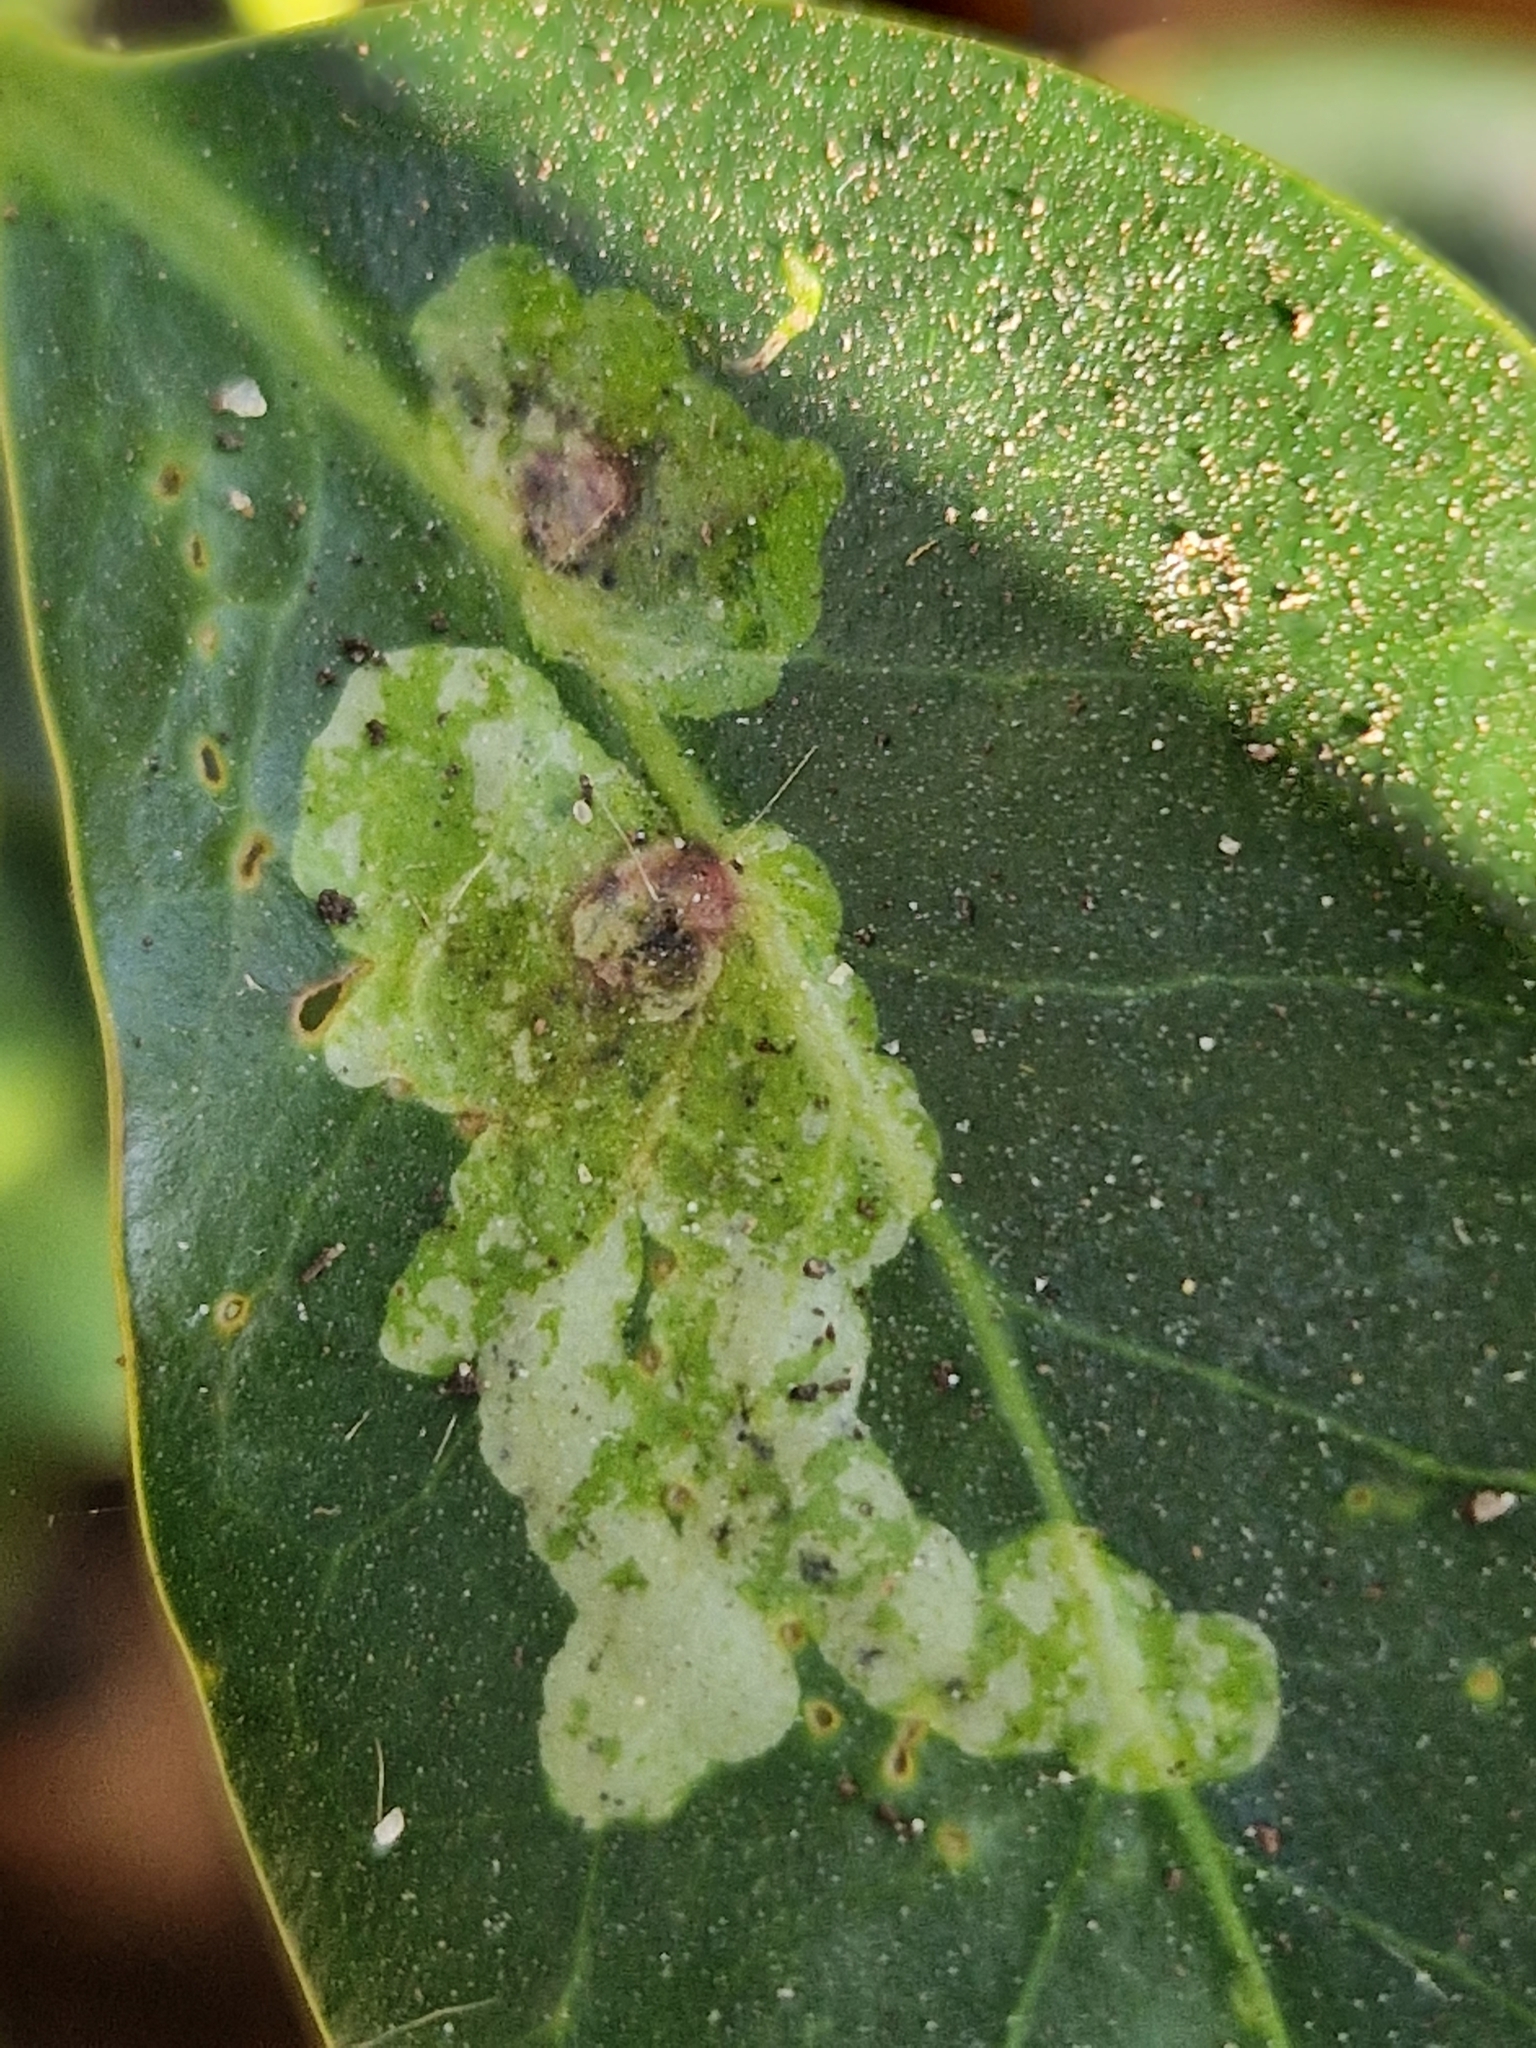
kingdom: Animalia
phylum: Arthropoda
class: Insecta
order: Diptera
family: Agromyzidae
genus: Phytomyza
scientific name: Phytomyza ilicis
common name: Holly leafminer
